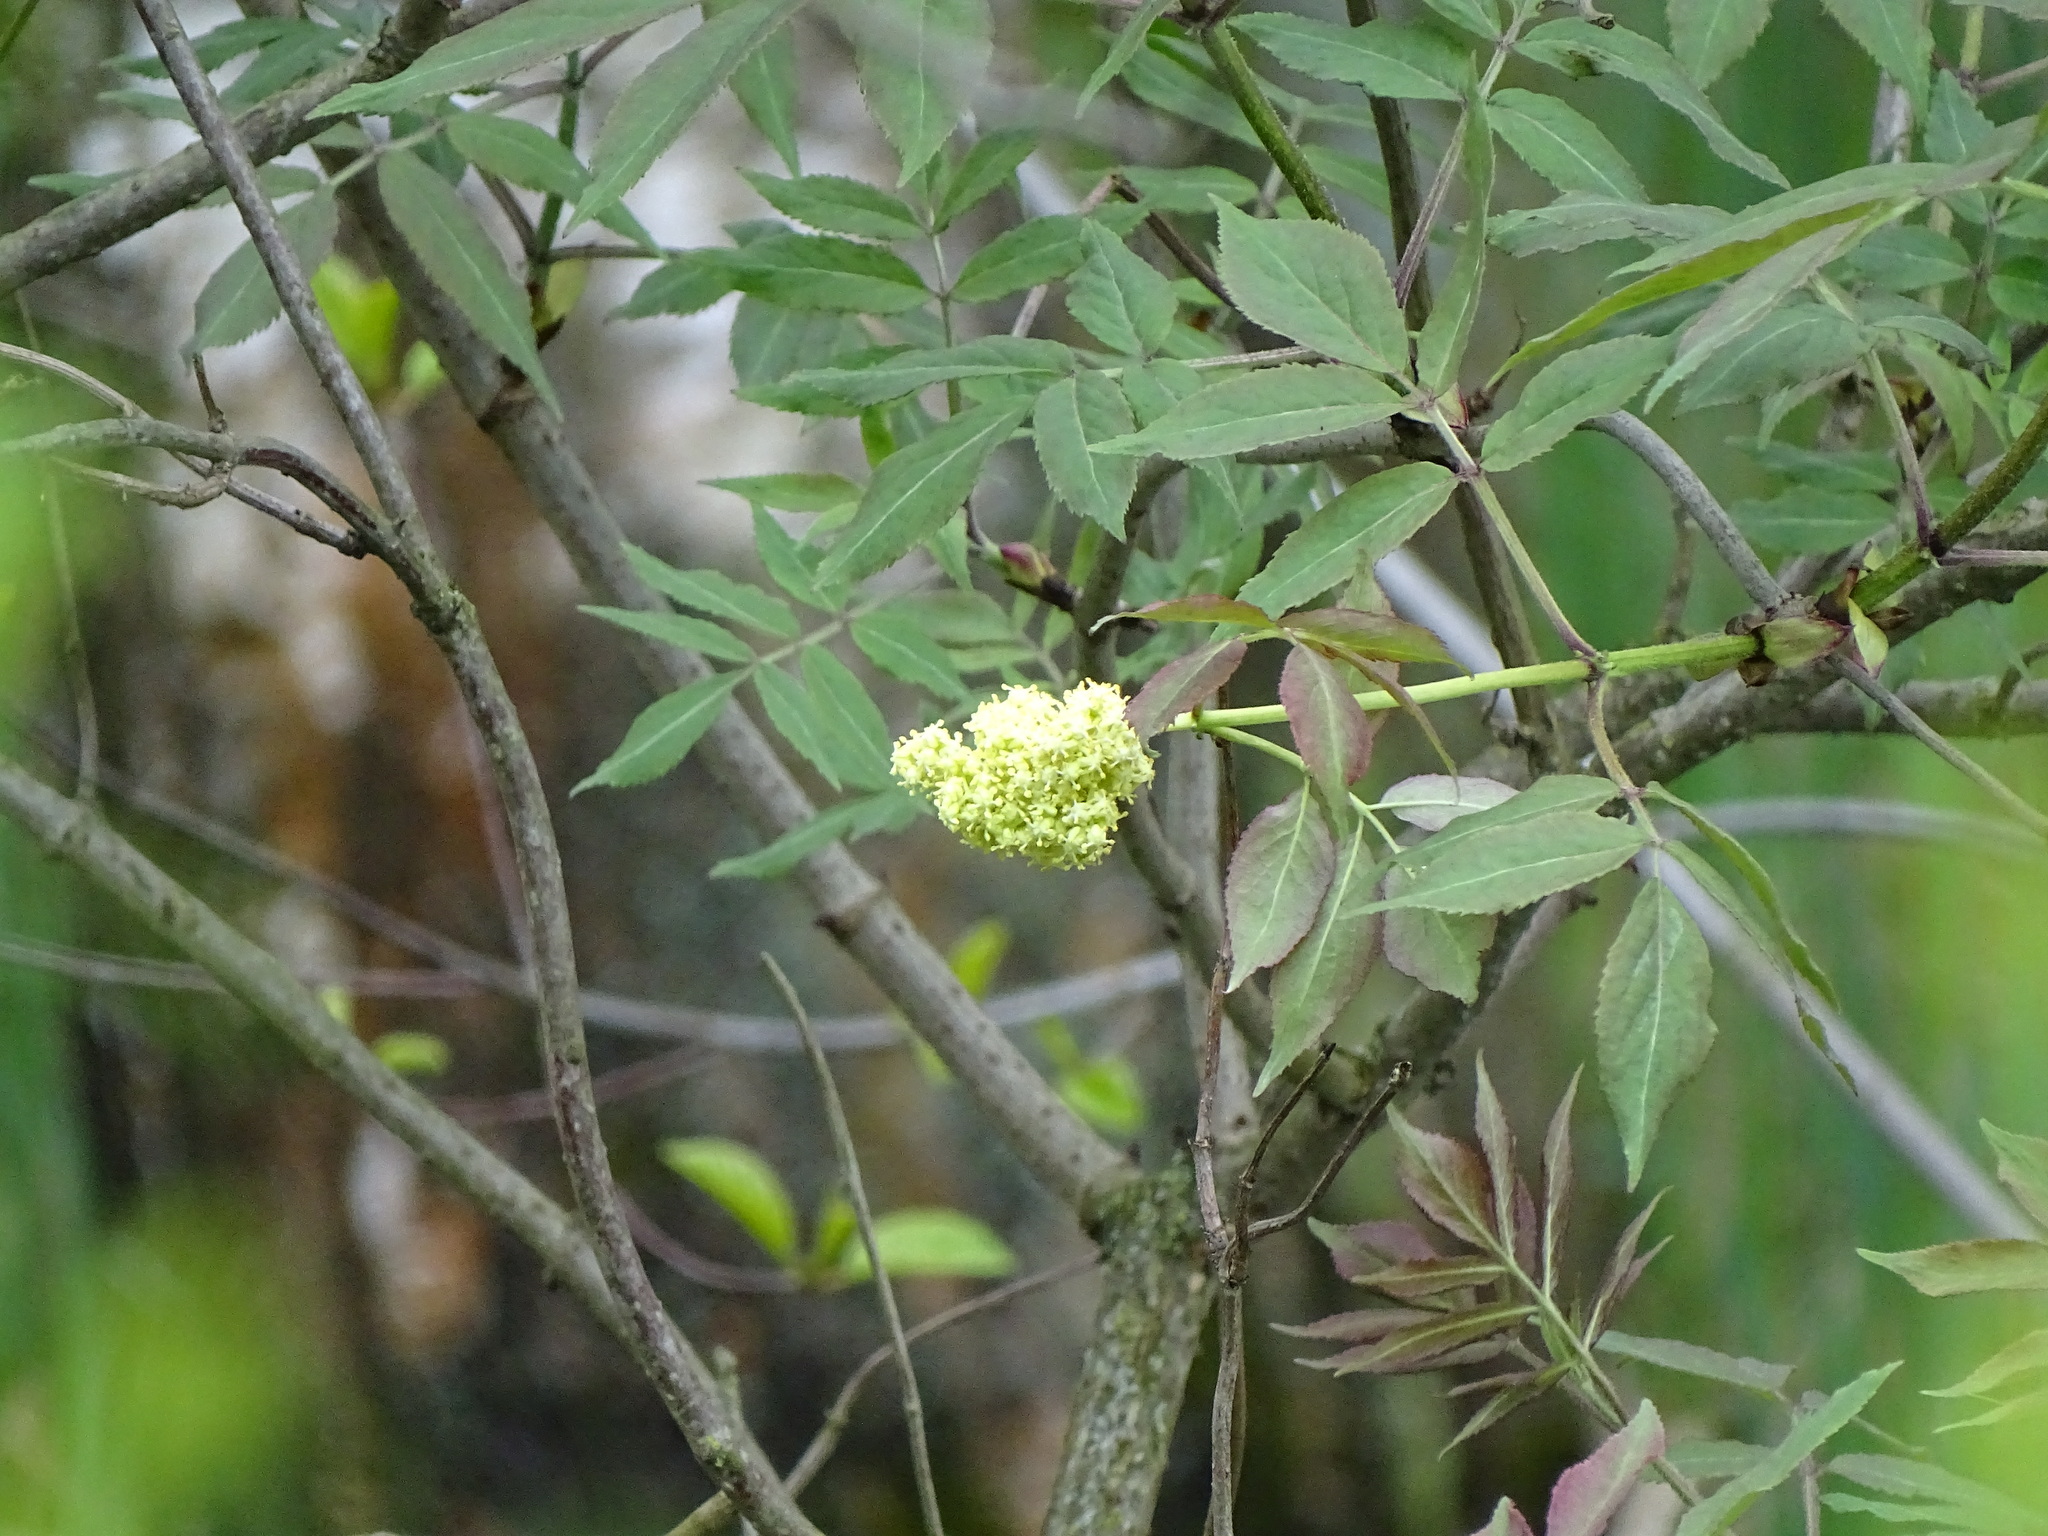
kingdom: Plantae
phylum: Tracheophyta
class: Magnoliopsida
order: Dipsacales
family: Viburnaceae
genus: Sambucus
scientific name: Sambucus racemosa
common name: Red-berried elder
